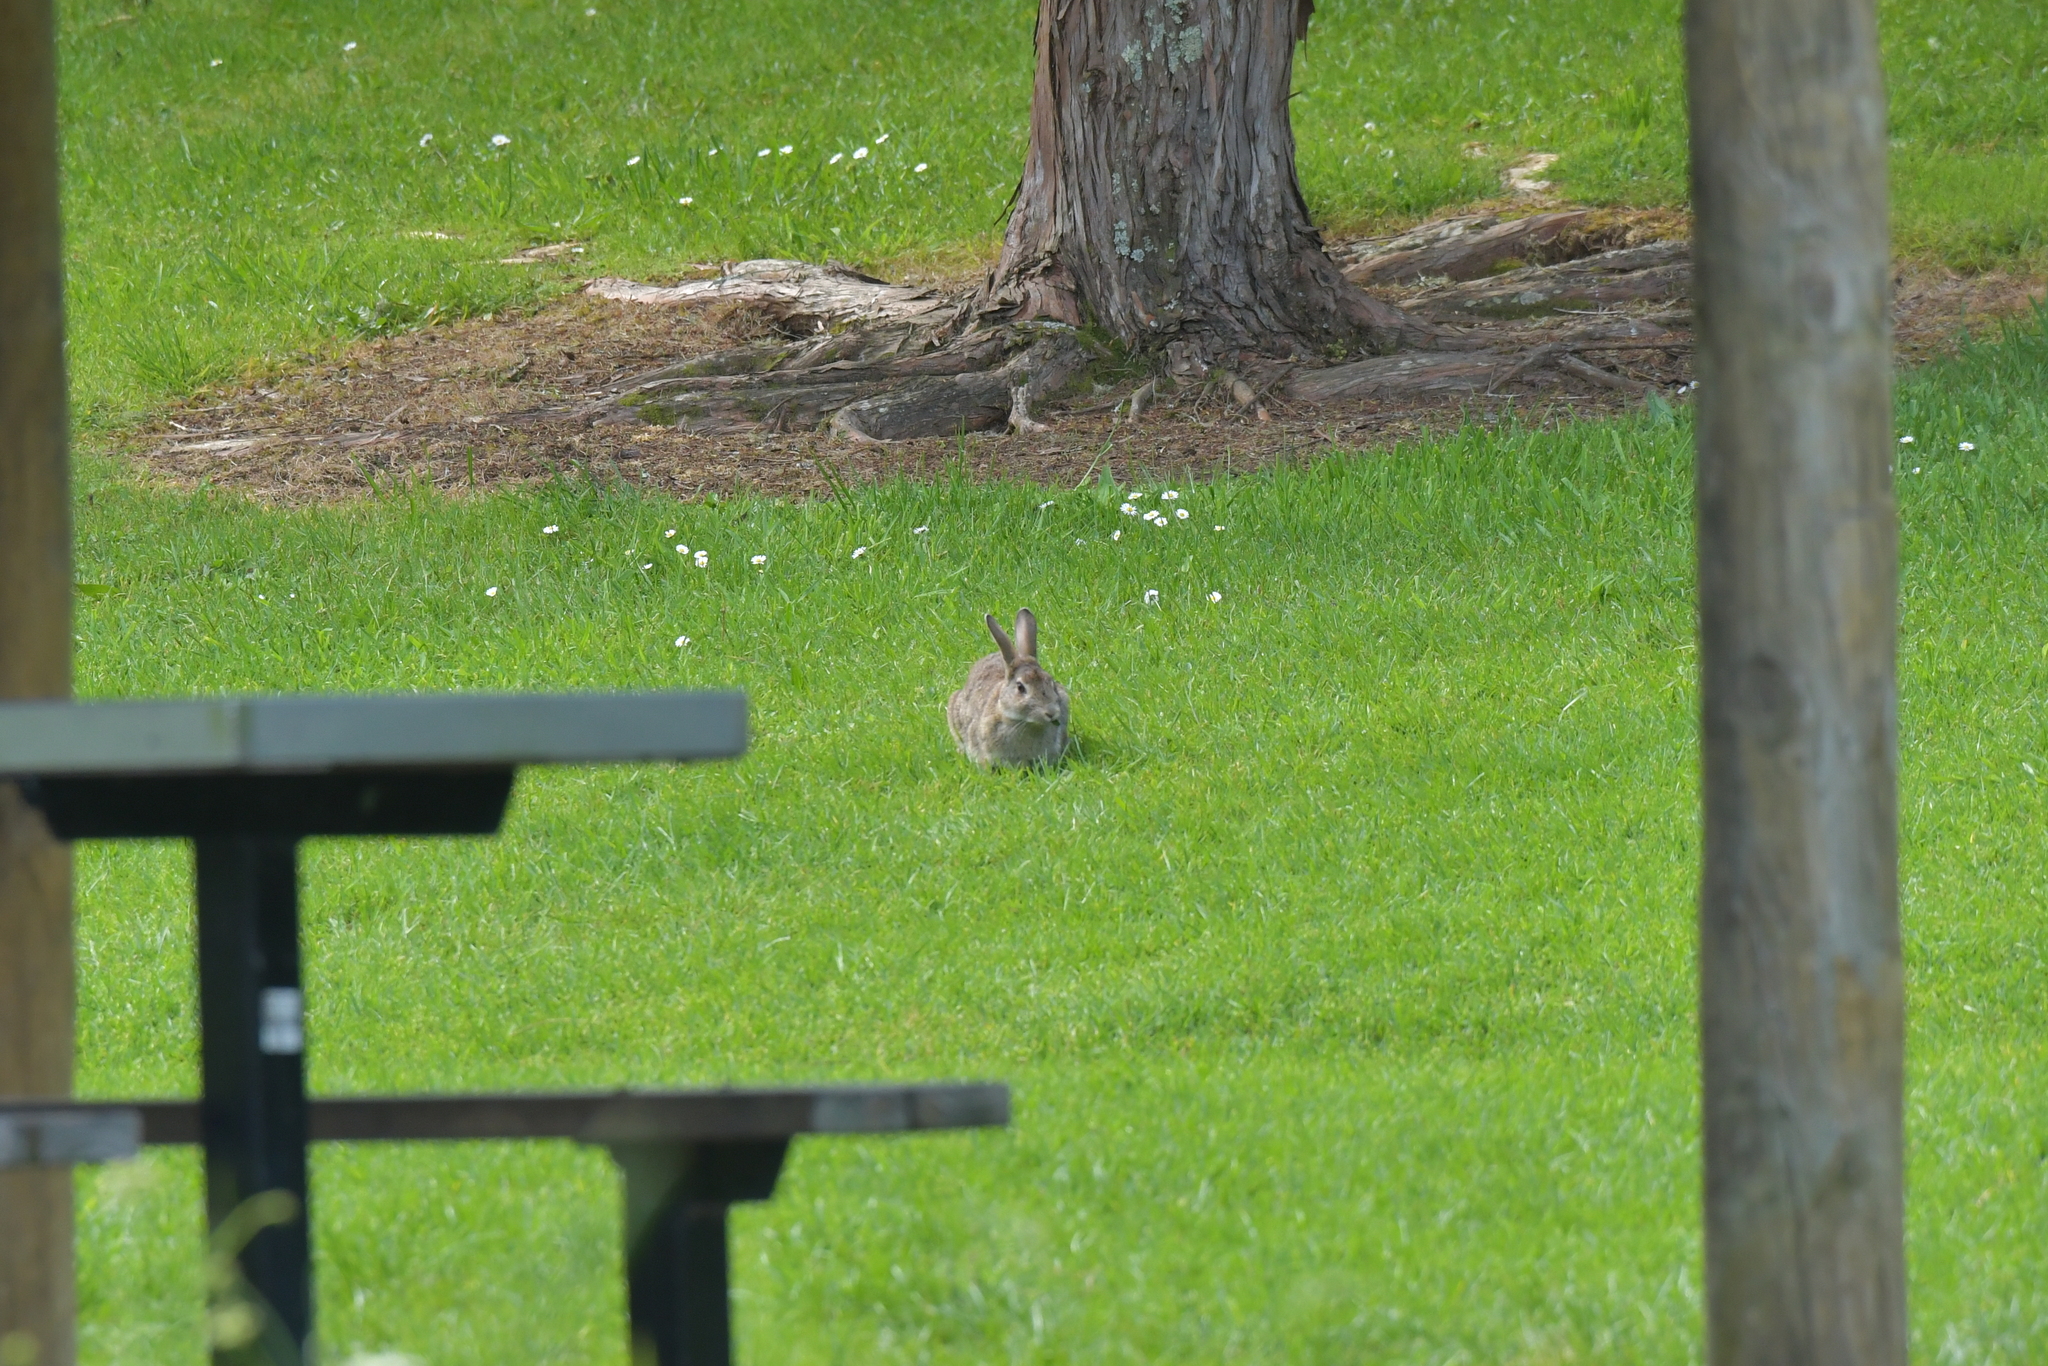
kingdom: Animalia
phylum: Chordata
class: Mammalia
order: Lagomorpha
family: Leporidae
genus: Oryctolagus
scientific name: Oryctolagus cuniculus
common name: European rabbit
